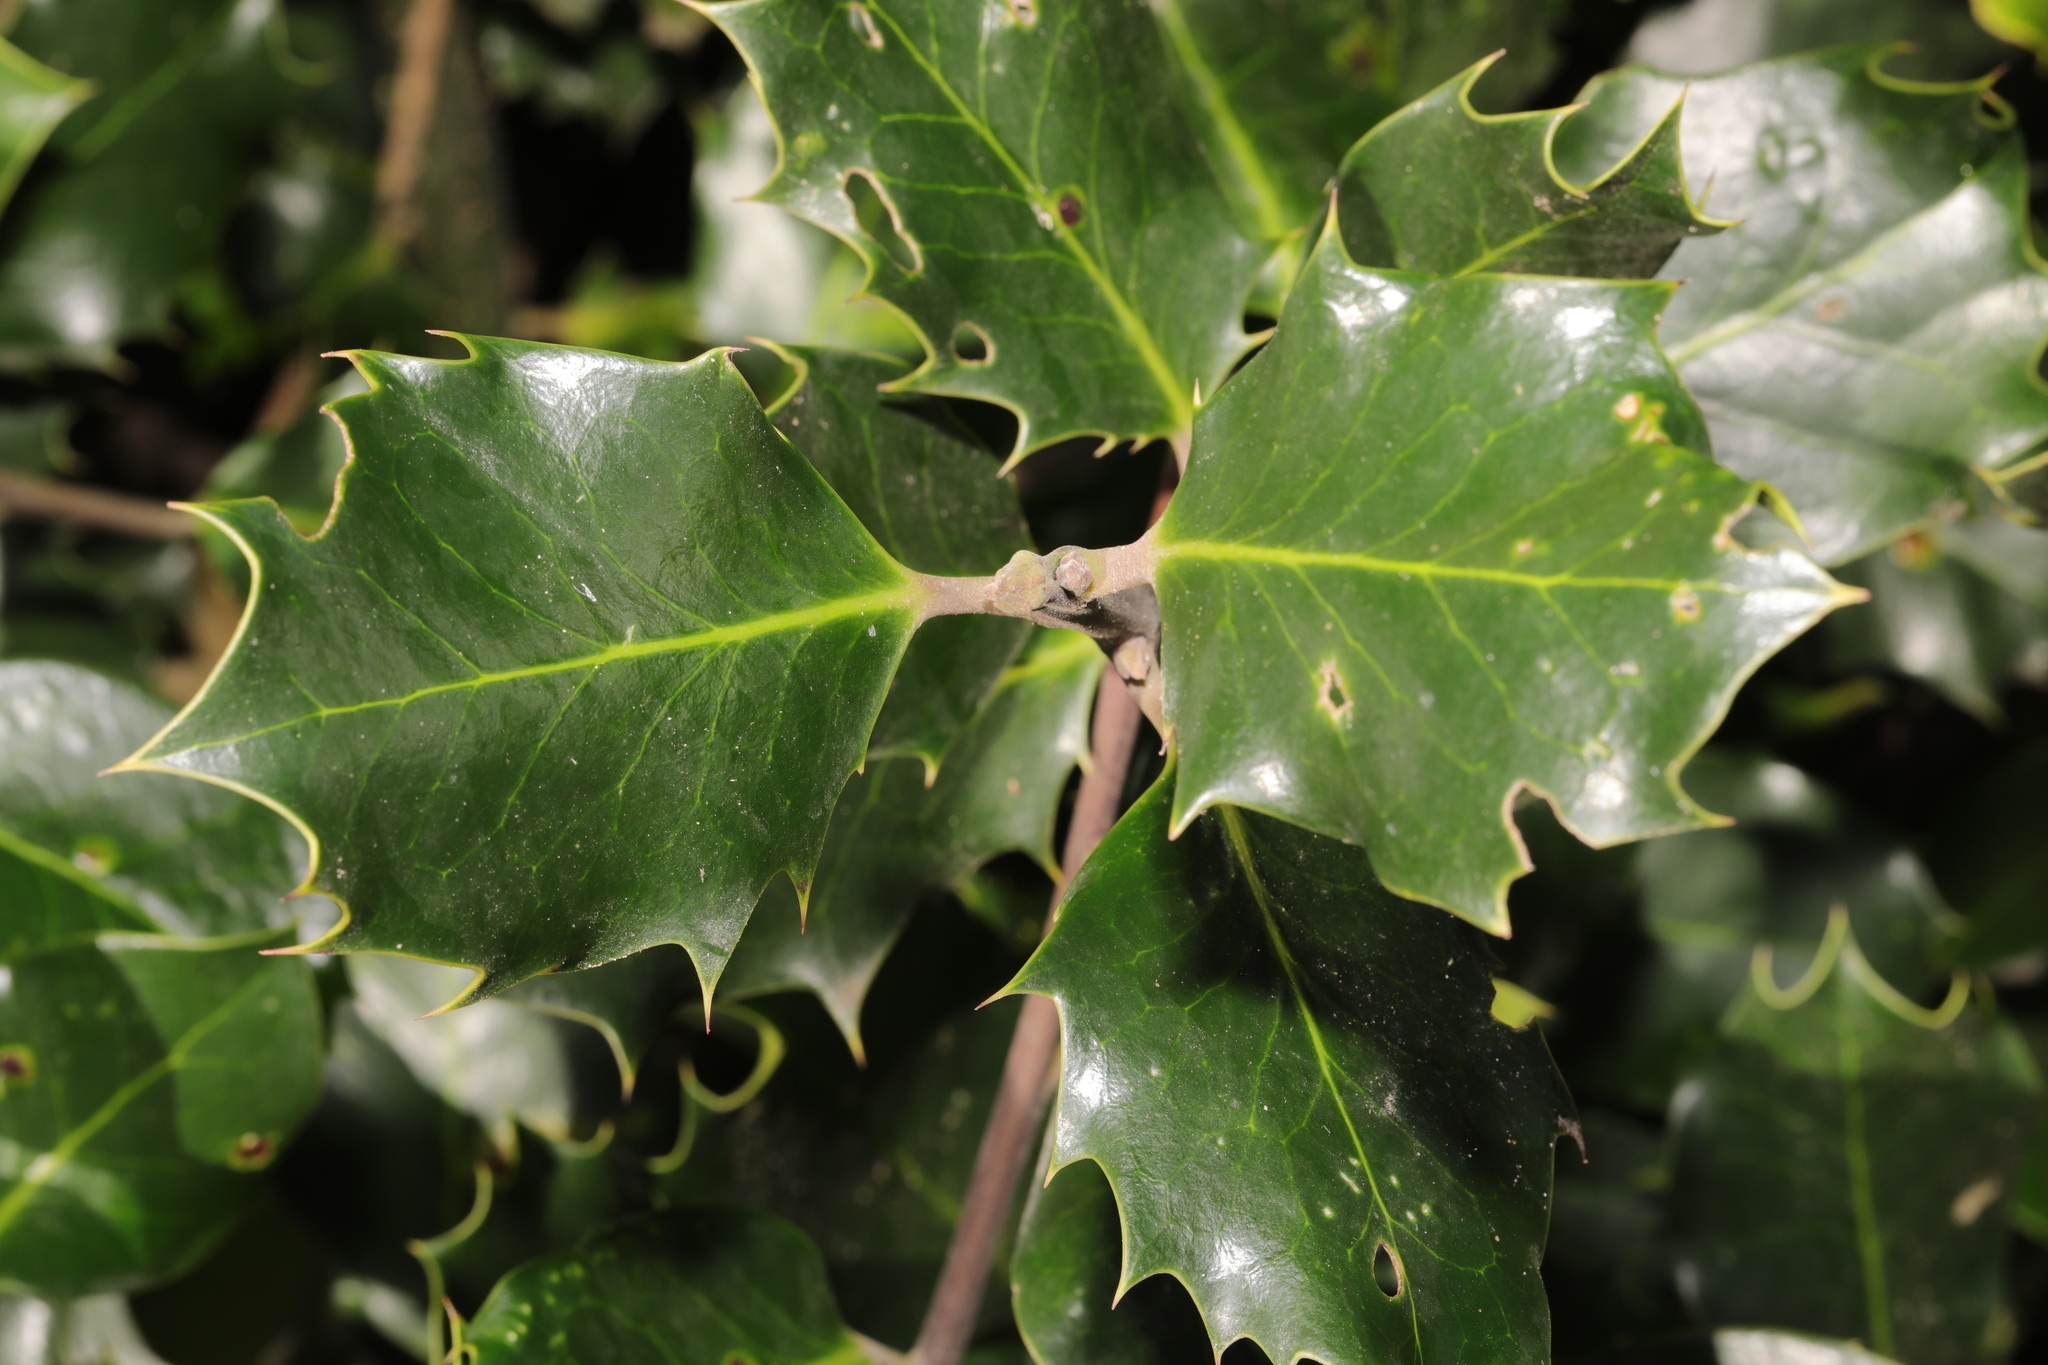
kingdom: Plantae
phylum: Tracheophyta
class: Magnoliopsida
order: Aquifoliales
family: Aquifoliaceae
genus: Ilex
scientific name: Ilex aquifolium
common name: English holly
